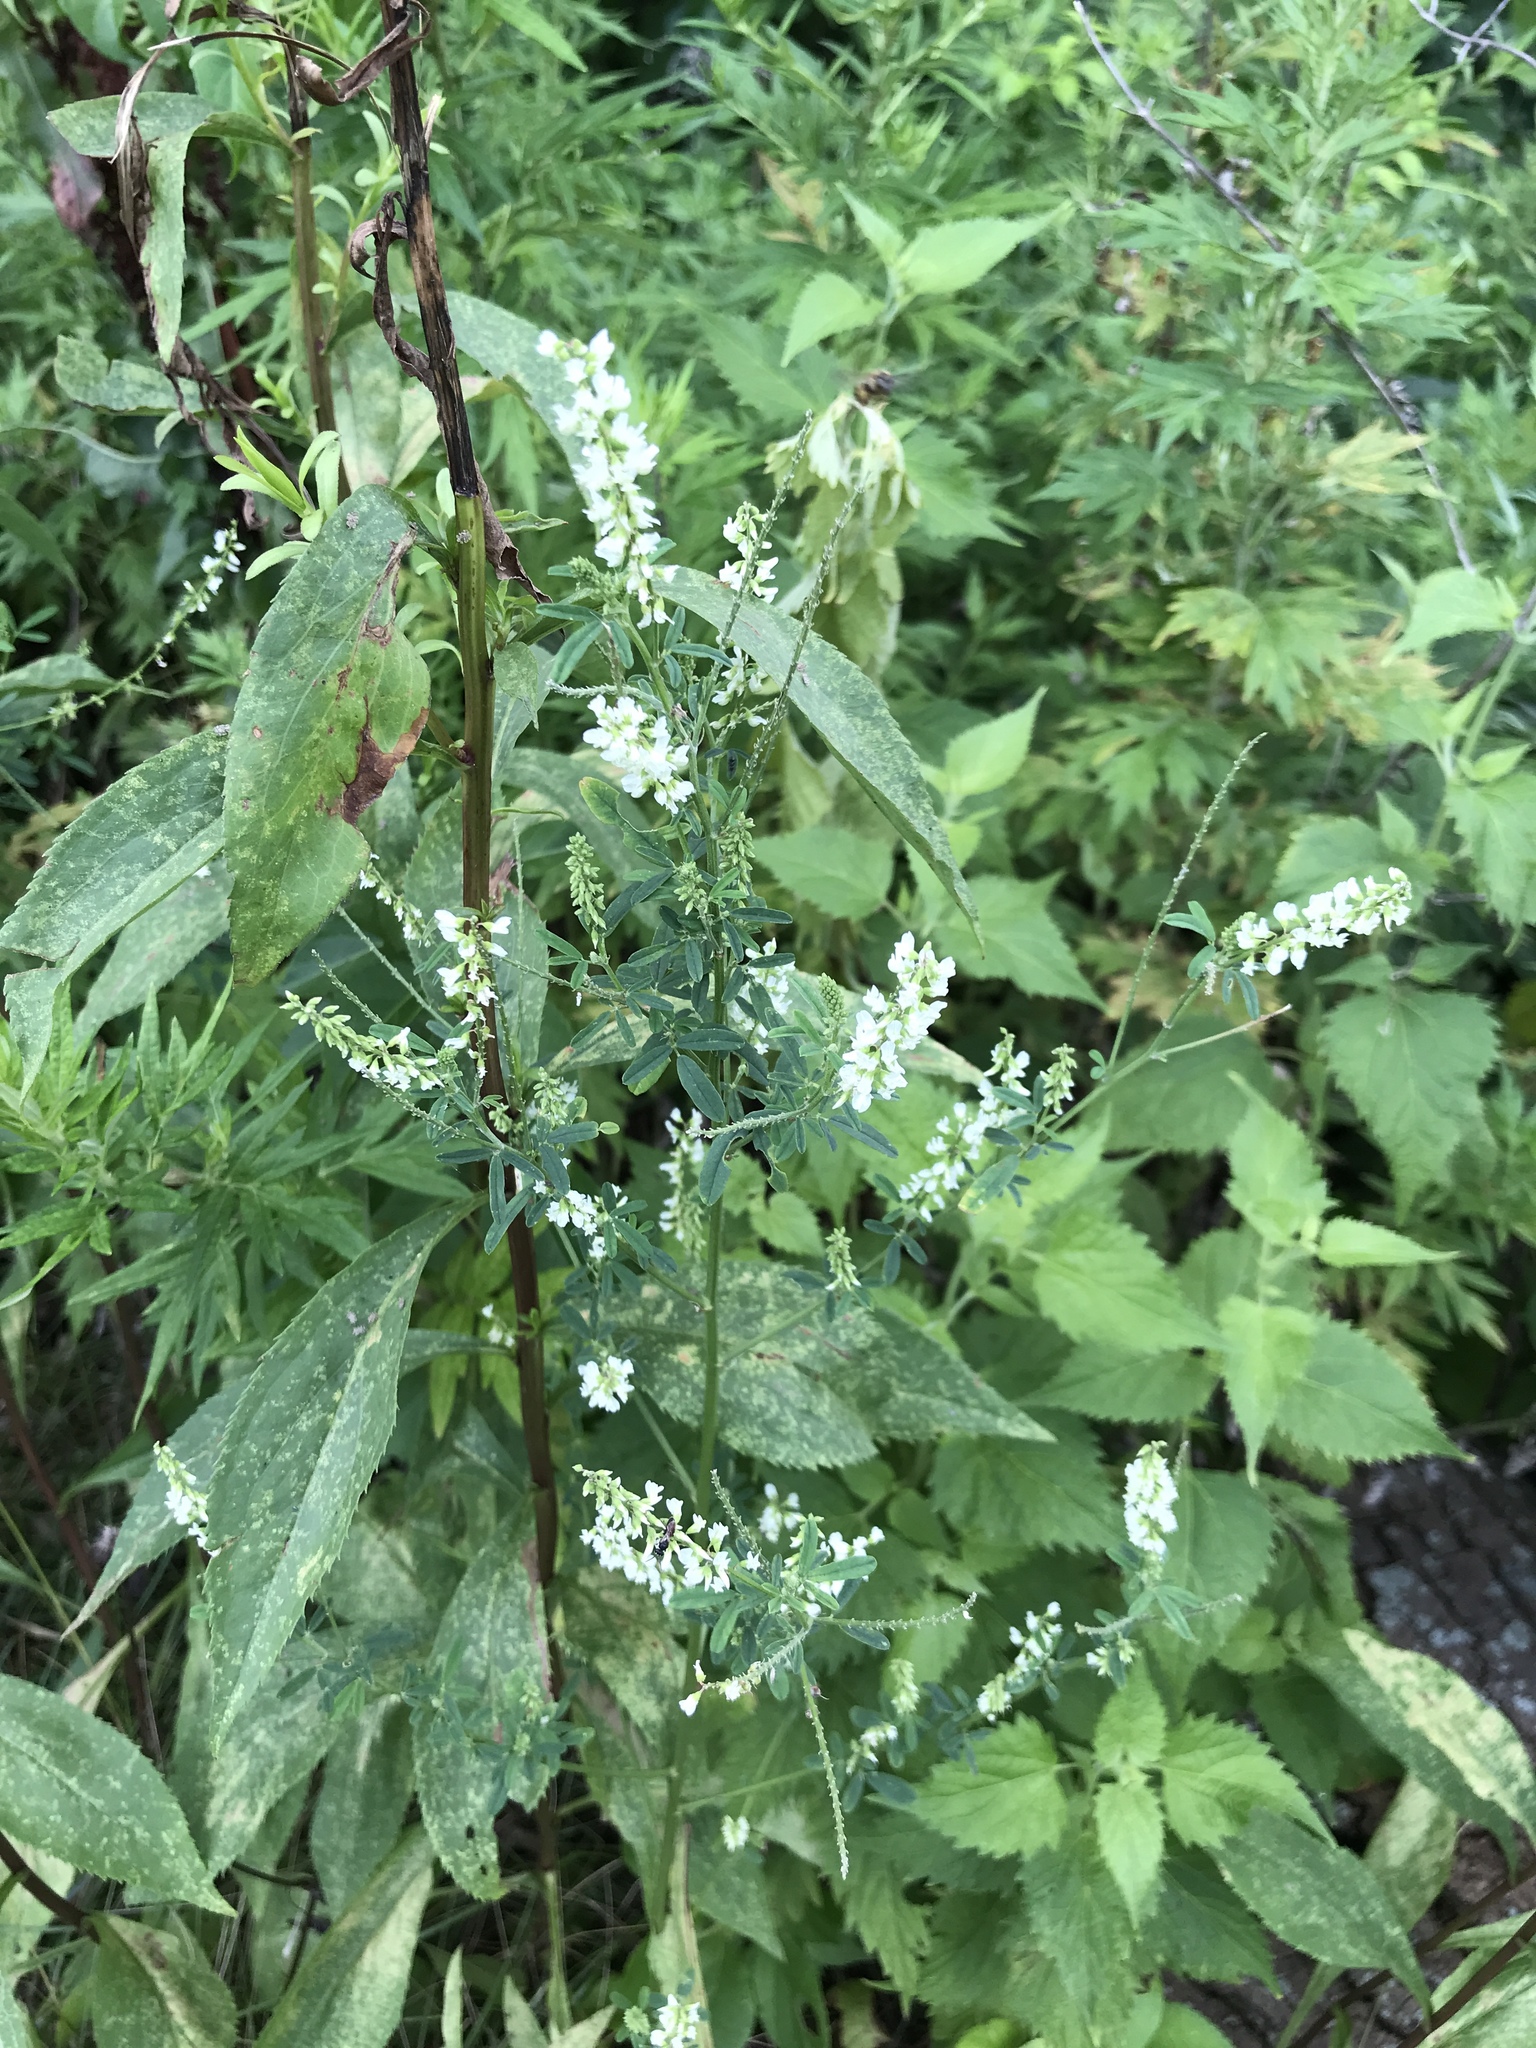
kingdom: Plantae
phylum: Tracheophyta
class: Magnoliopsida
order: Fabales
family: Fabaceae
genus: Melilotus
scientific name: Melilotus albus
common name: White melilot
